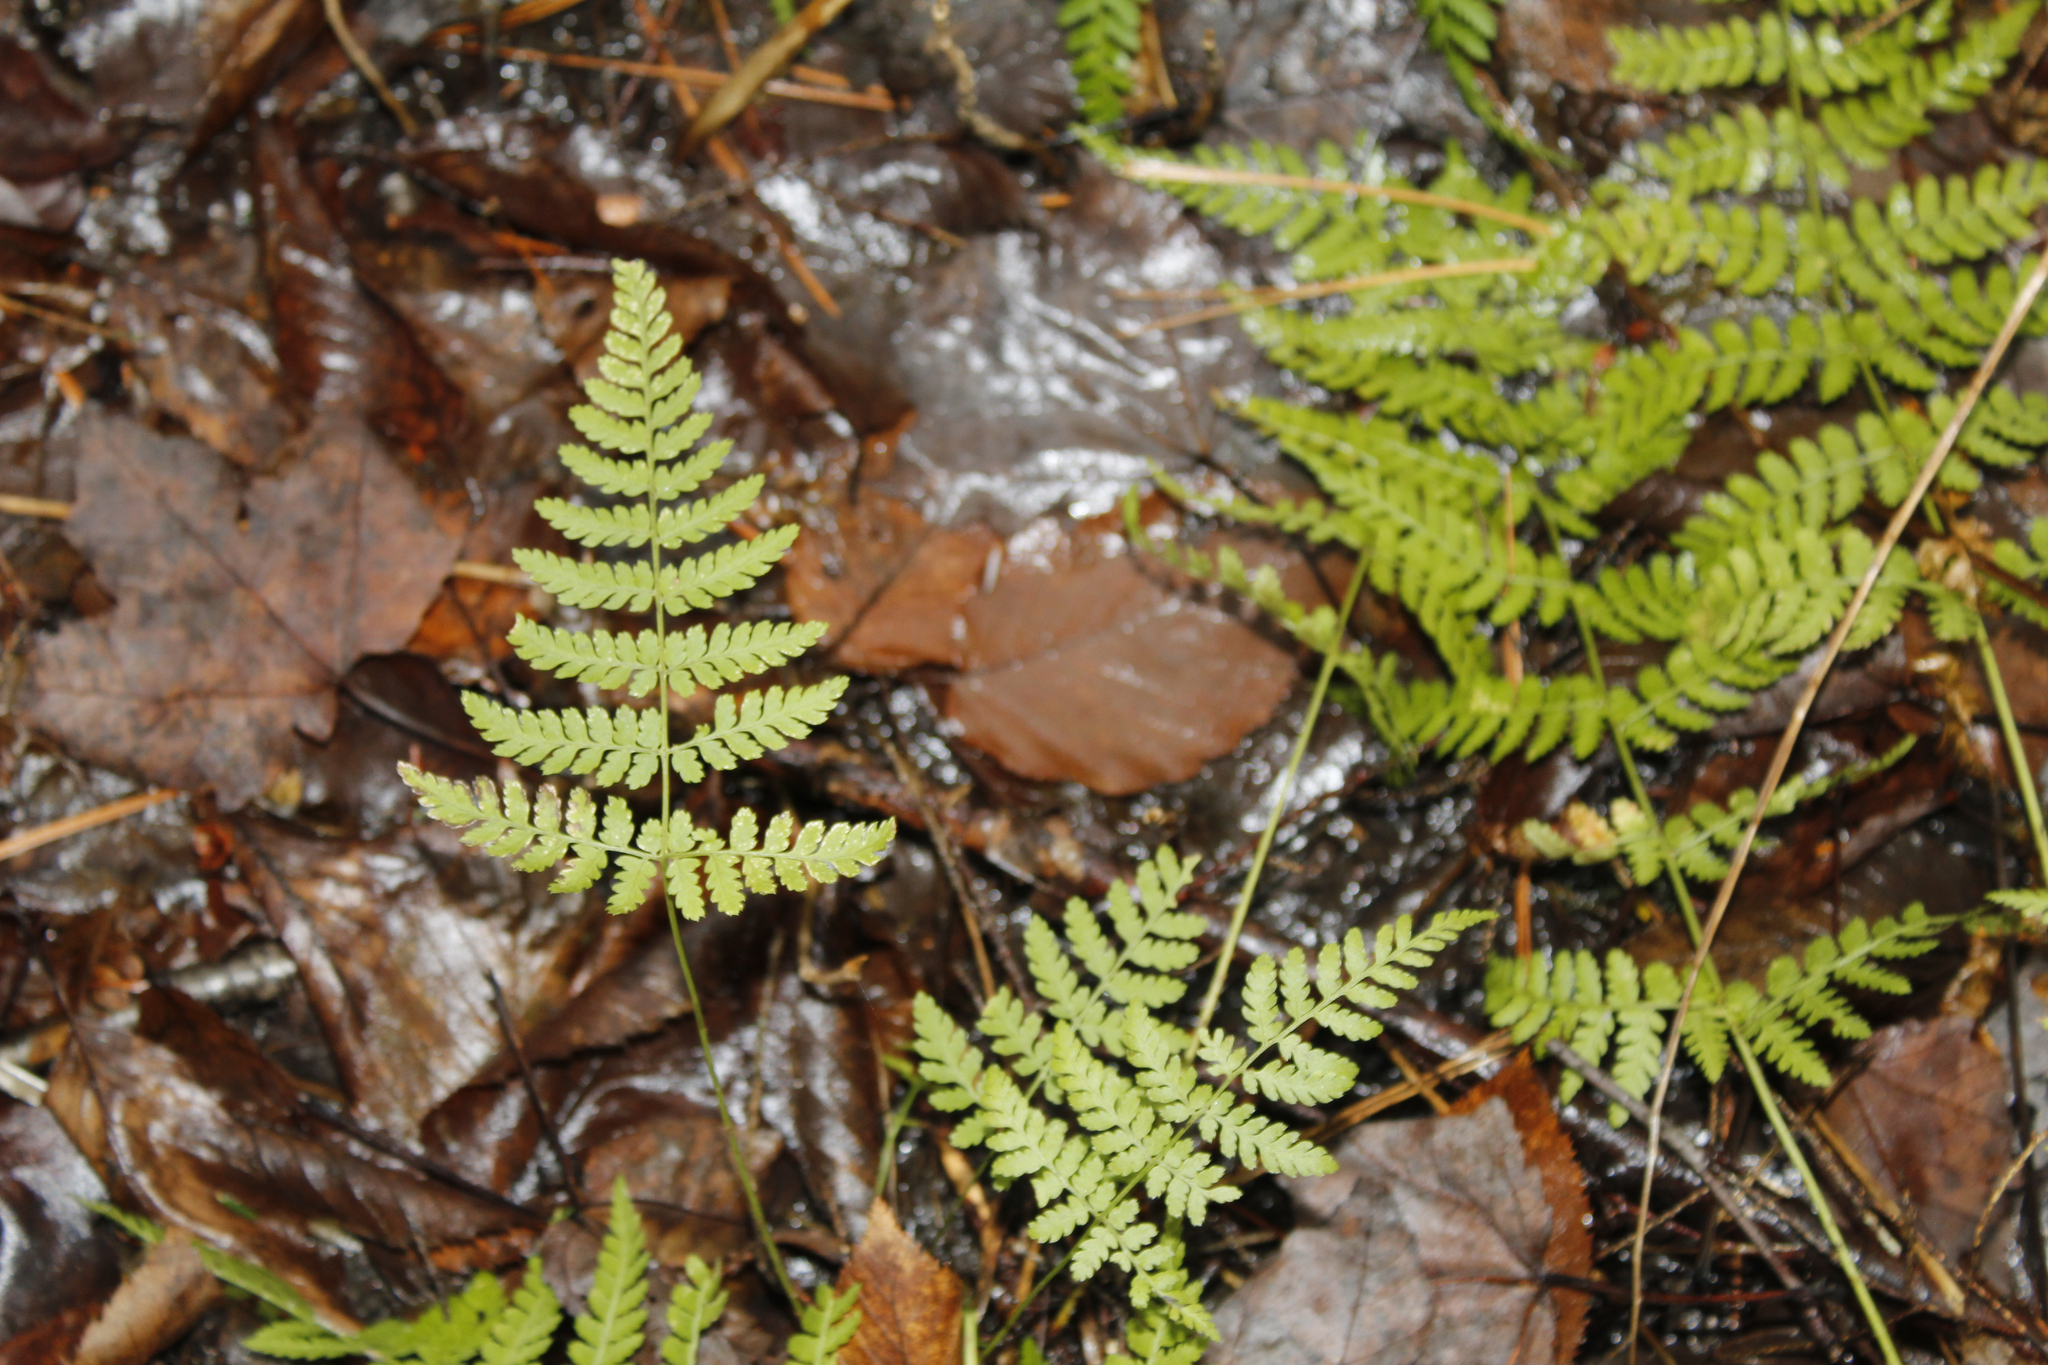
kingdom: Plantae
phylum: Tracheophyta
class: Polypodiopsida
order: Polypodiales
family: Dryopteridaceae
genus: Dryopteris
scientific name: Dryopteris intermedia
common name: Evergreen wood fern
